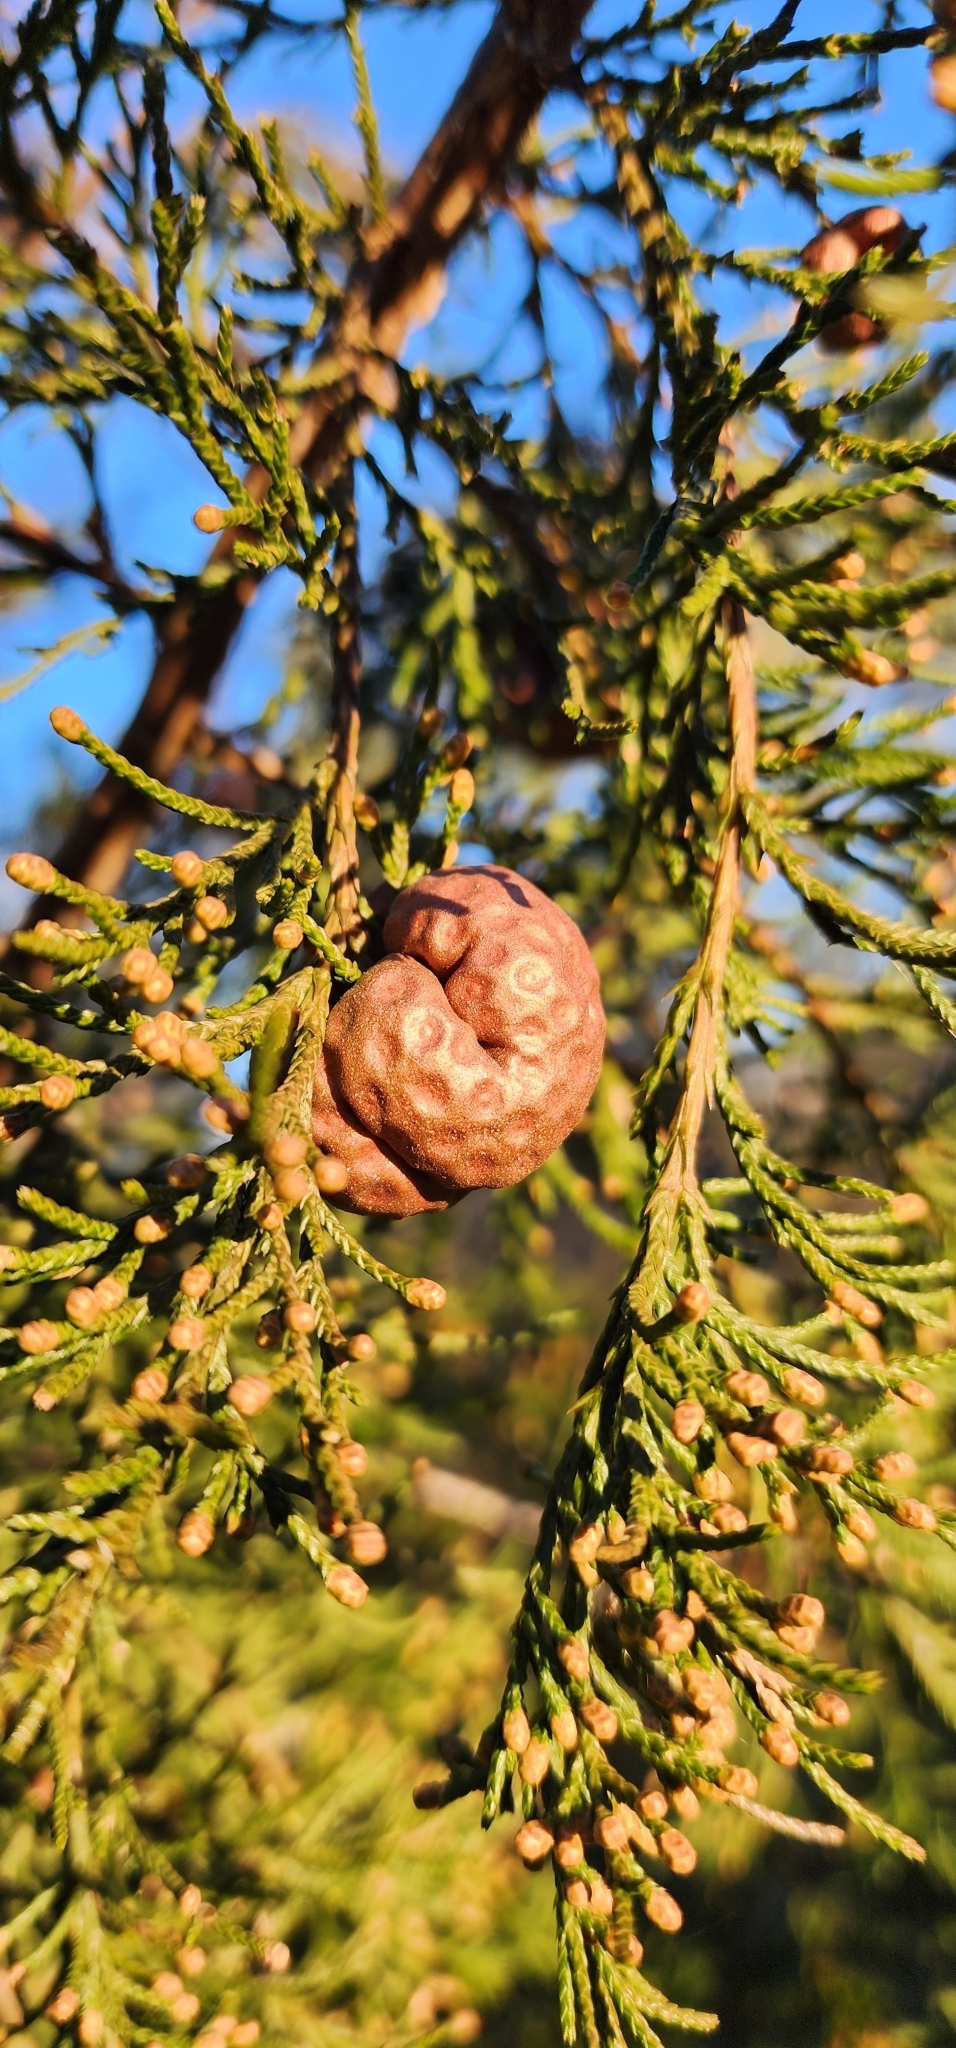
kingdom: Fungi
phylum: Basidiomycota
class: Pucciniomycetes
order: Pucciniales
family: Gymnosporangiaceae
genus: Gymnosporangium
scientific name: Gymnosporangium juniperi-virginianae
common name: Juniper-apple rust
